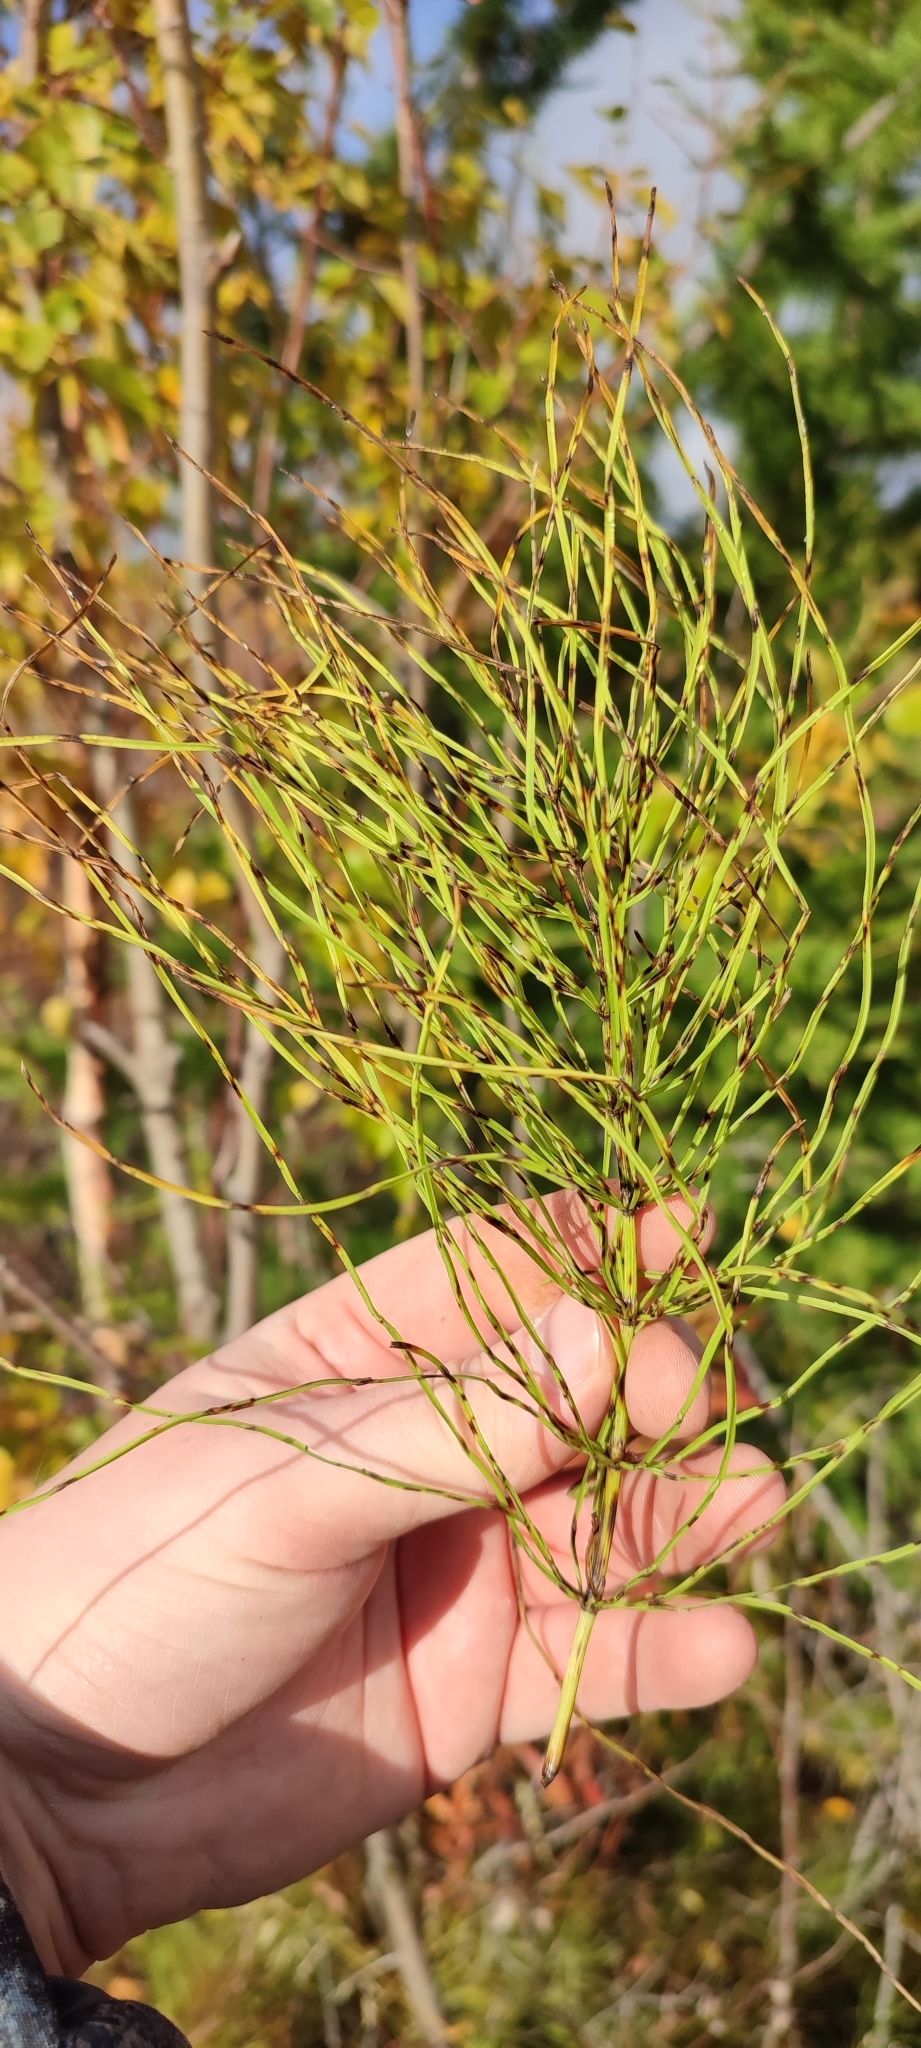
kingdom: Plantae
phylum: Tracheophyta
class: Polypodiopsida
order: Equisetales
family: Equisetaceae
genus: Equisetum
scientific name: Equisetum arvense
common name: Field horsetail
